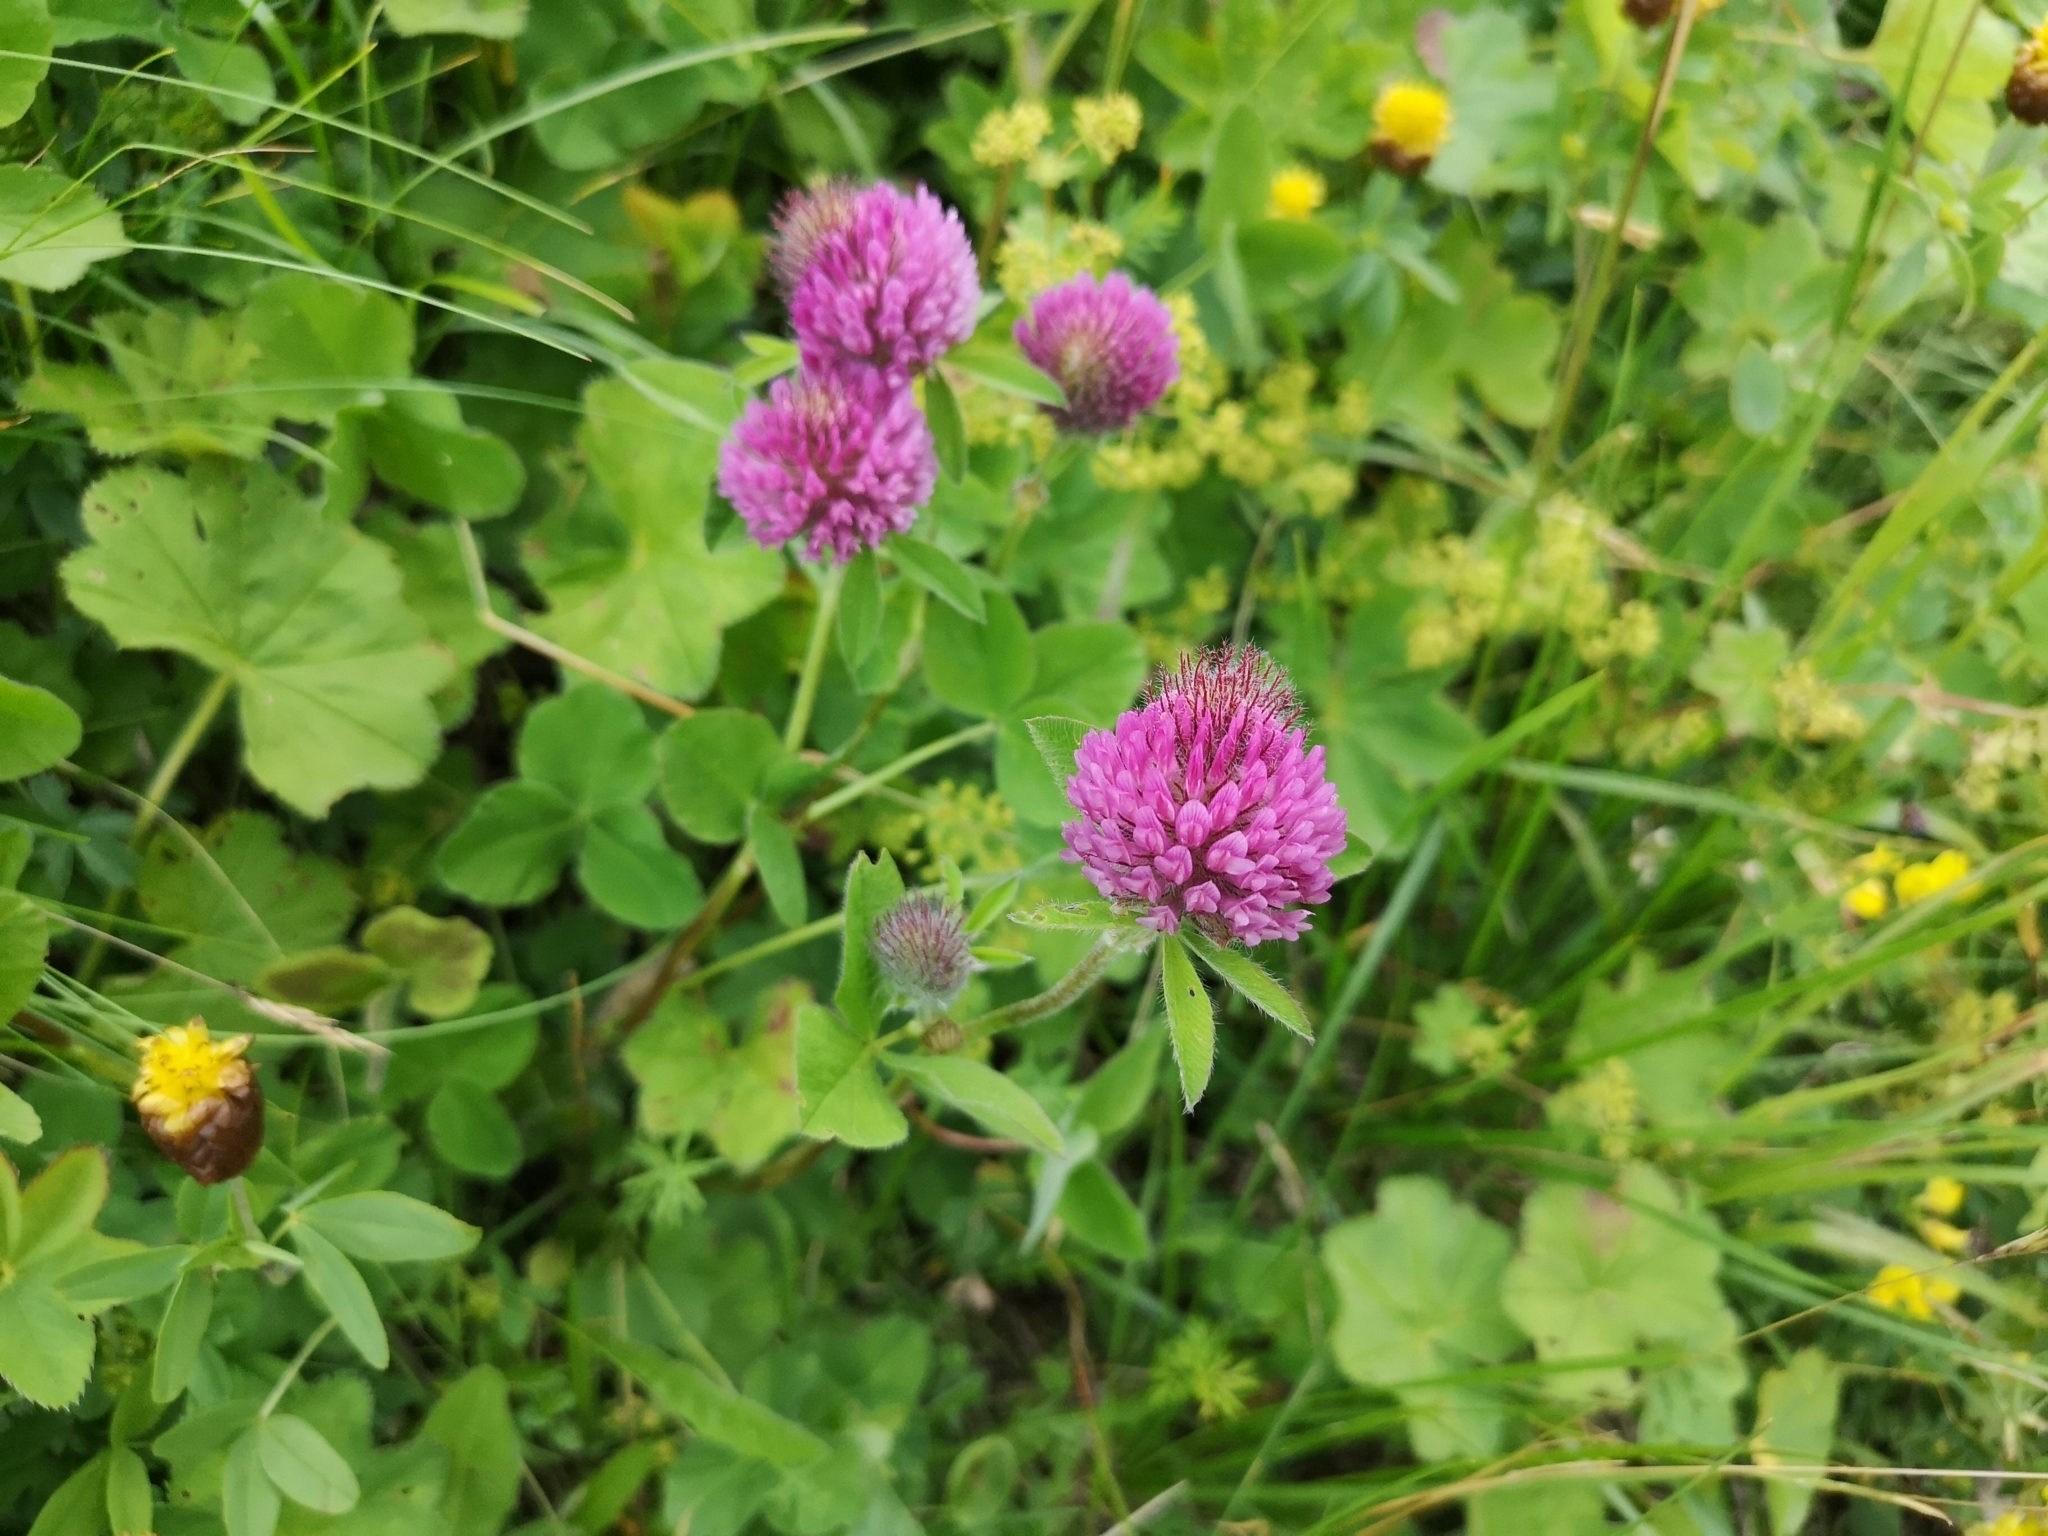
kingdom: Plantae
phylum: Tracheophyta
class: Magnoliopsida
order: Fabales
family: Fabaceae
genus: Trifolium
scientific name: Trifolium medium
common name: Zigzag clover
